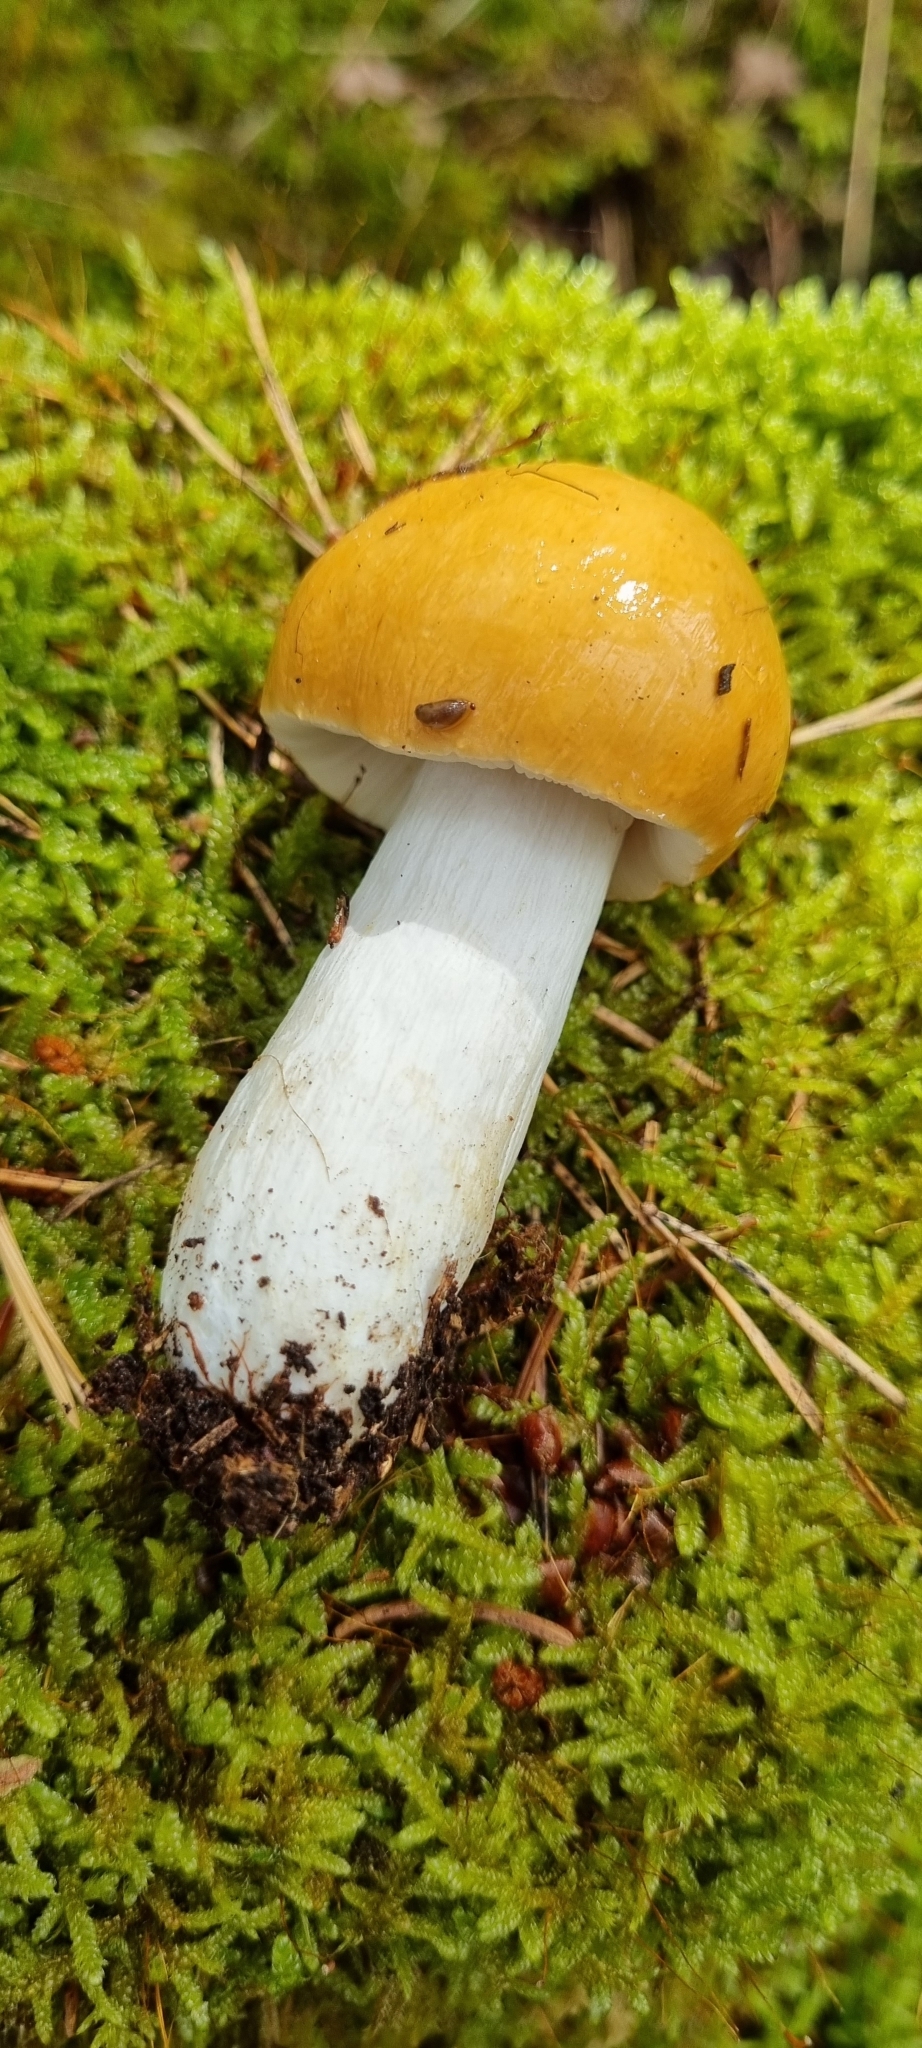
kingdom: Fungi
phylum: Basidiomycota
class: Agaricomycetes
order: Russulales
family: Russulaceae
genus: Russula
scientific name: Russula decolorans
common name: Copper brittlegill
